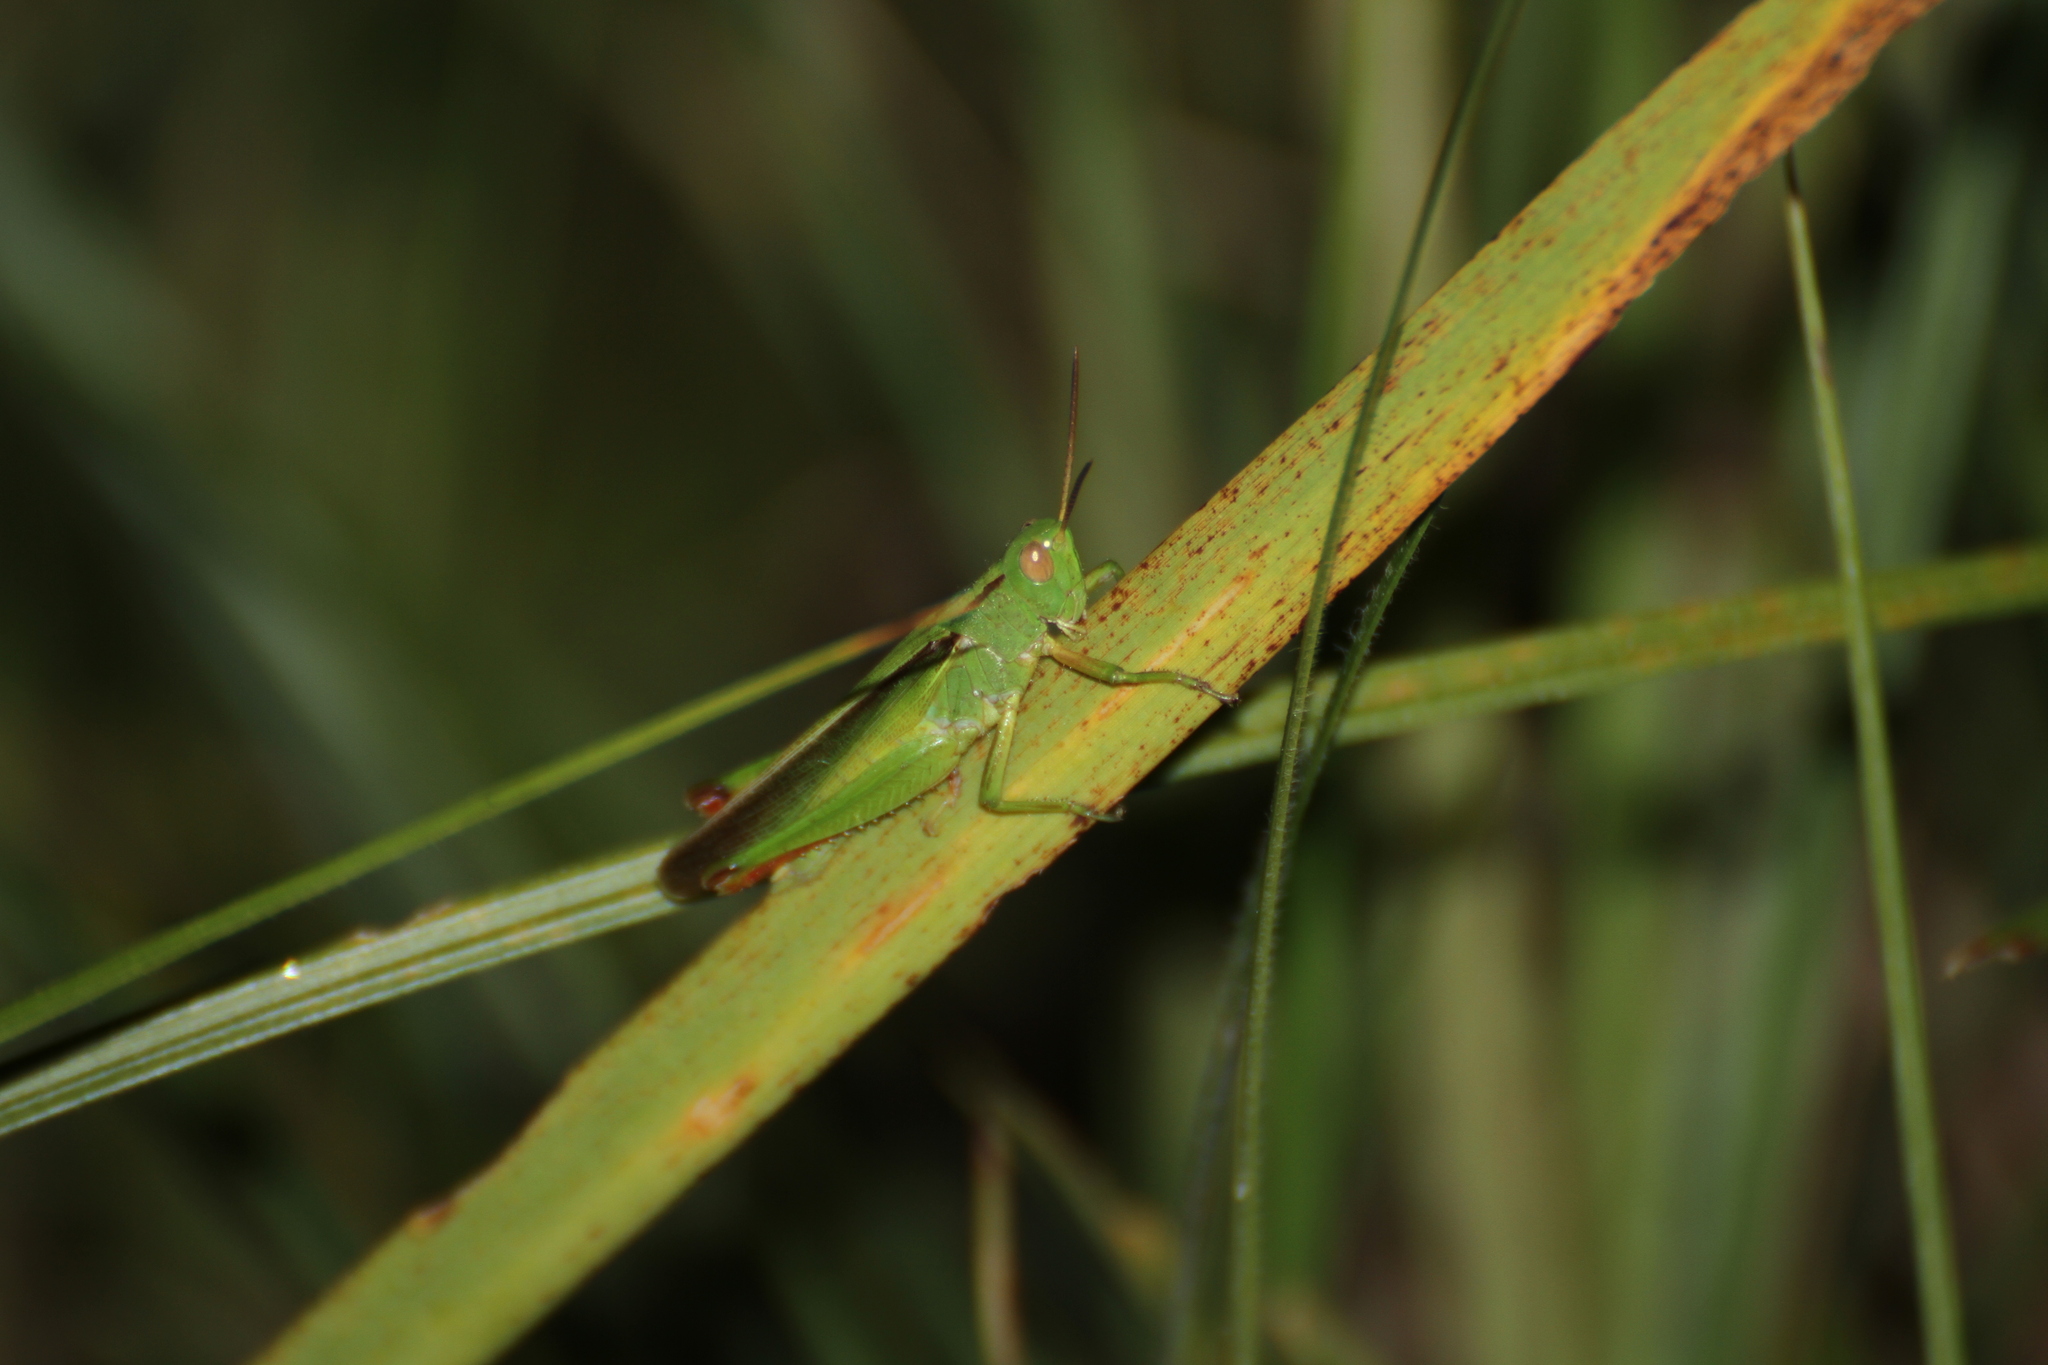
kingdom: Animalia
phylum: Arthropoda
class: Insecta
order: Orthoptera
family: Acrididae
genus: Paracinema
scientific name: Paracinema tricolor
